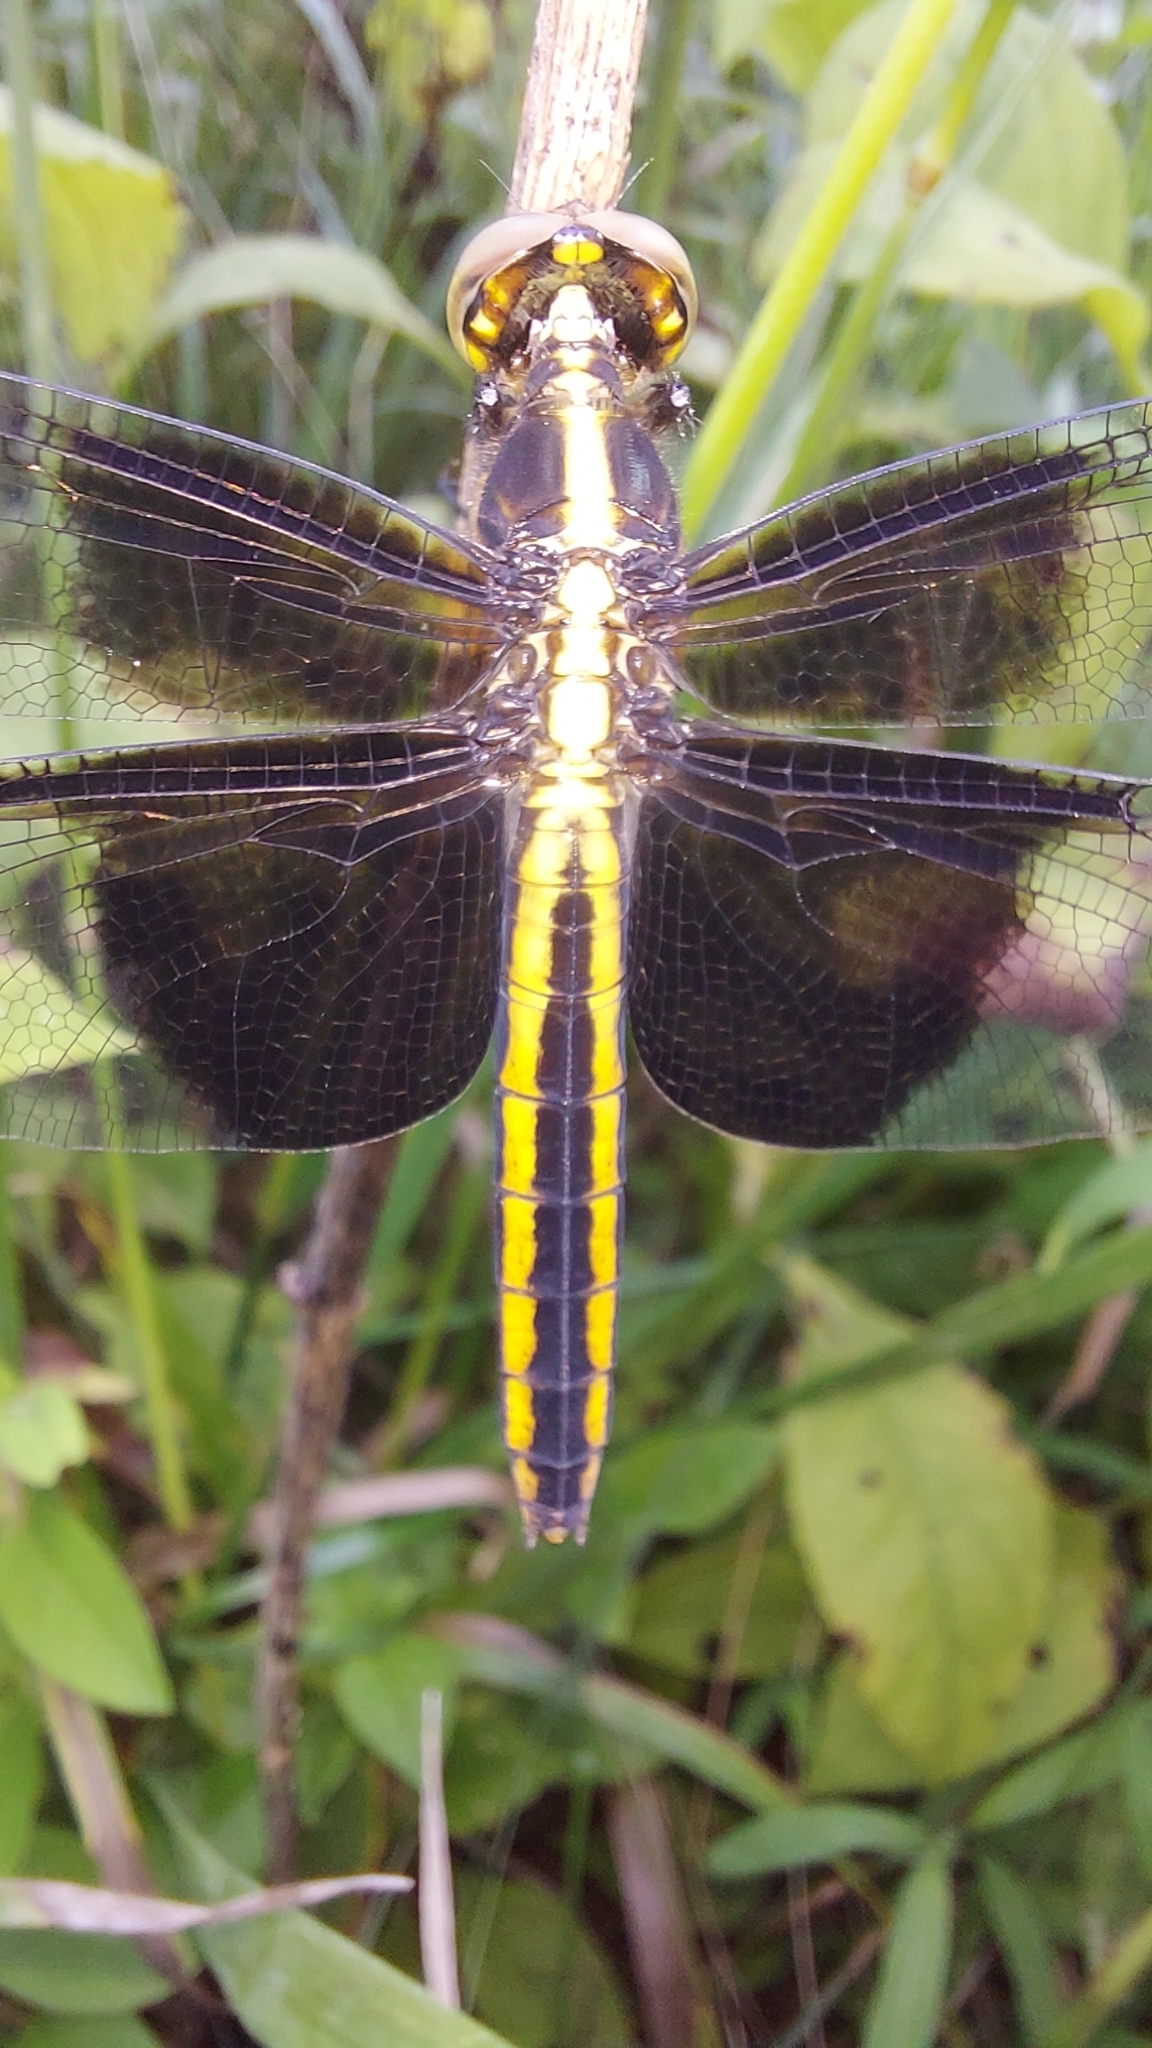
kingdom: Animalia
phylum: Arthropoda
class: Insecta
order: Odonata
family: Libellulidae
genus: Libellula
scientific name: Libellula luctuosa
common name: Widow skimmer
